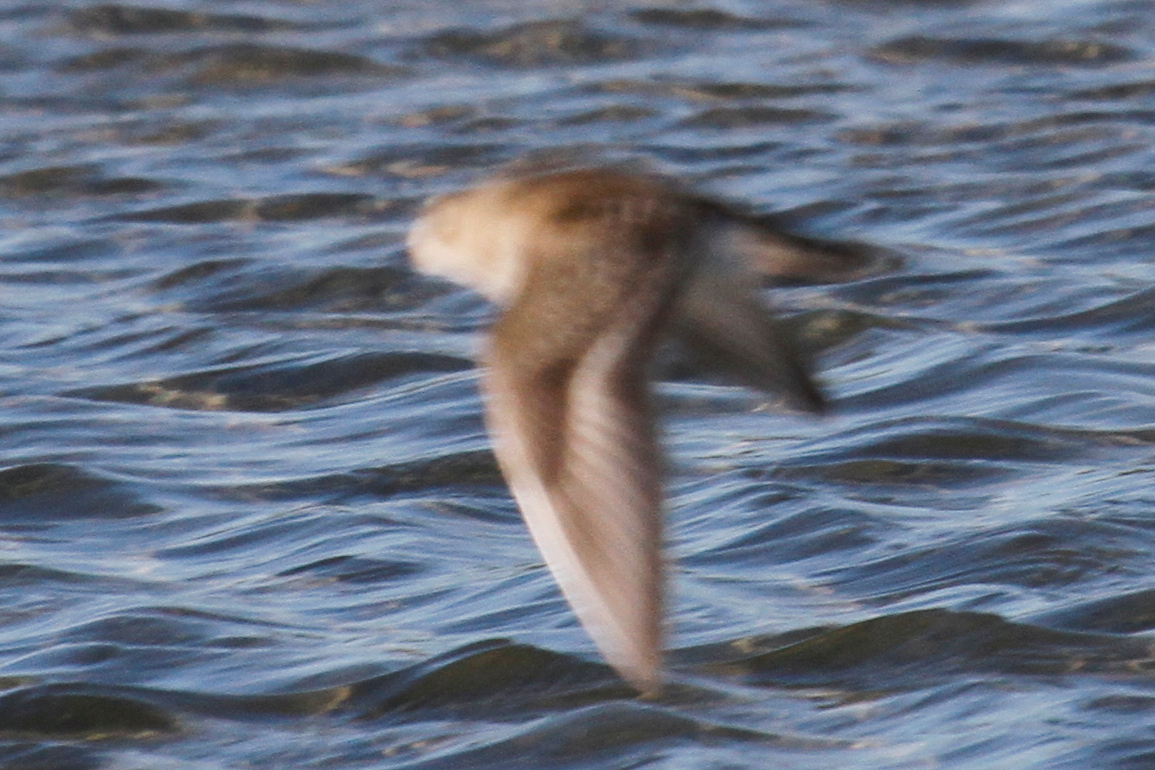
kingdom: Animalia
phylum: Chordata
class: Aves
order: Charadriiformes
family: Scolopacidae
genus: Calidris
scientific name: Calidris bairdii
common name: Baird's sandpiper
